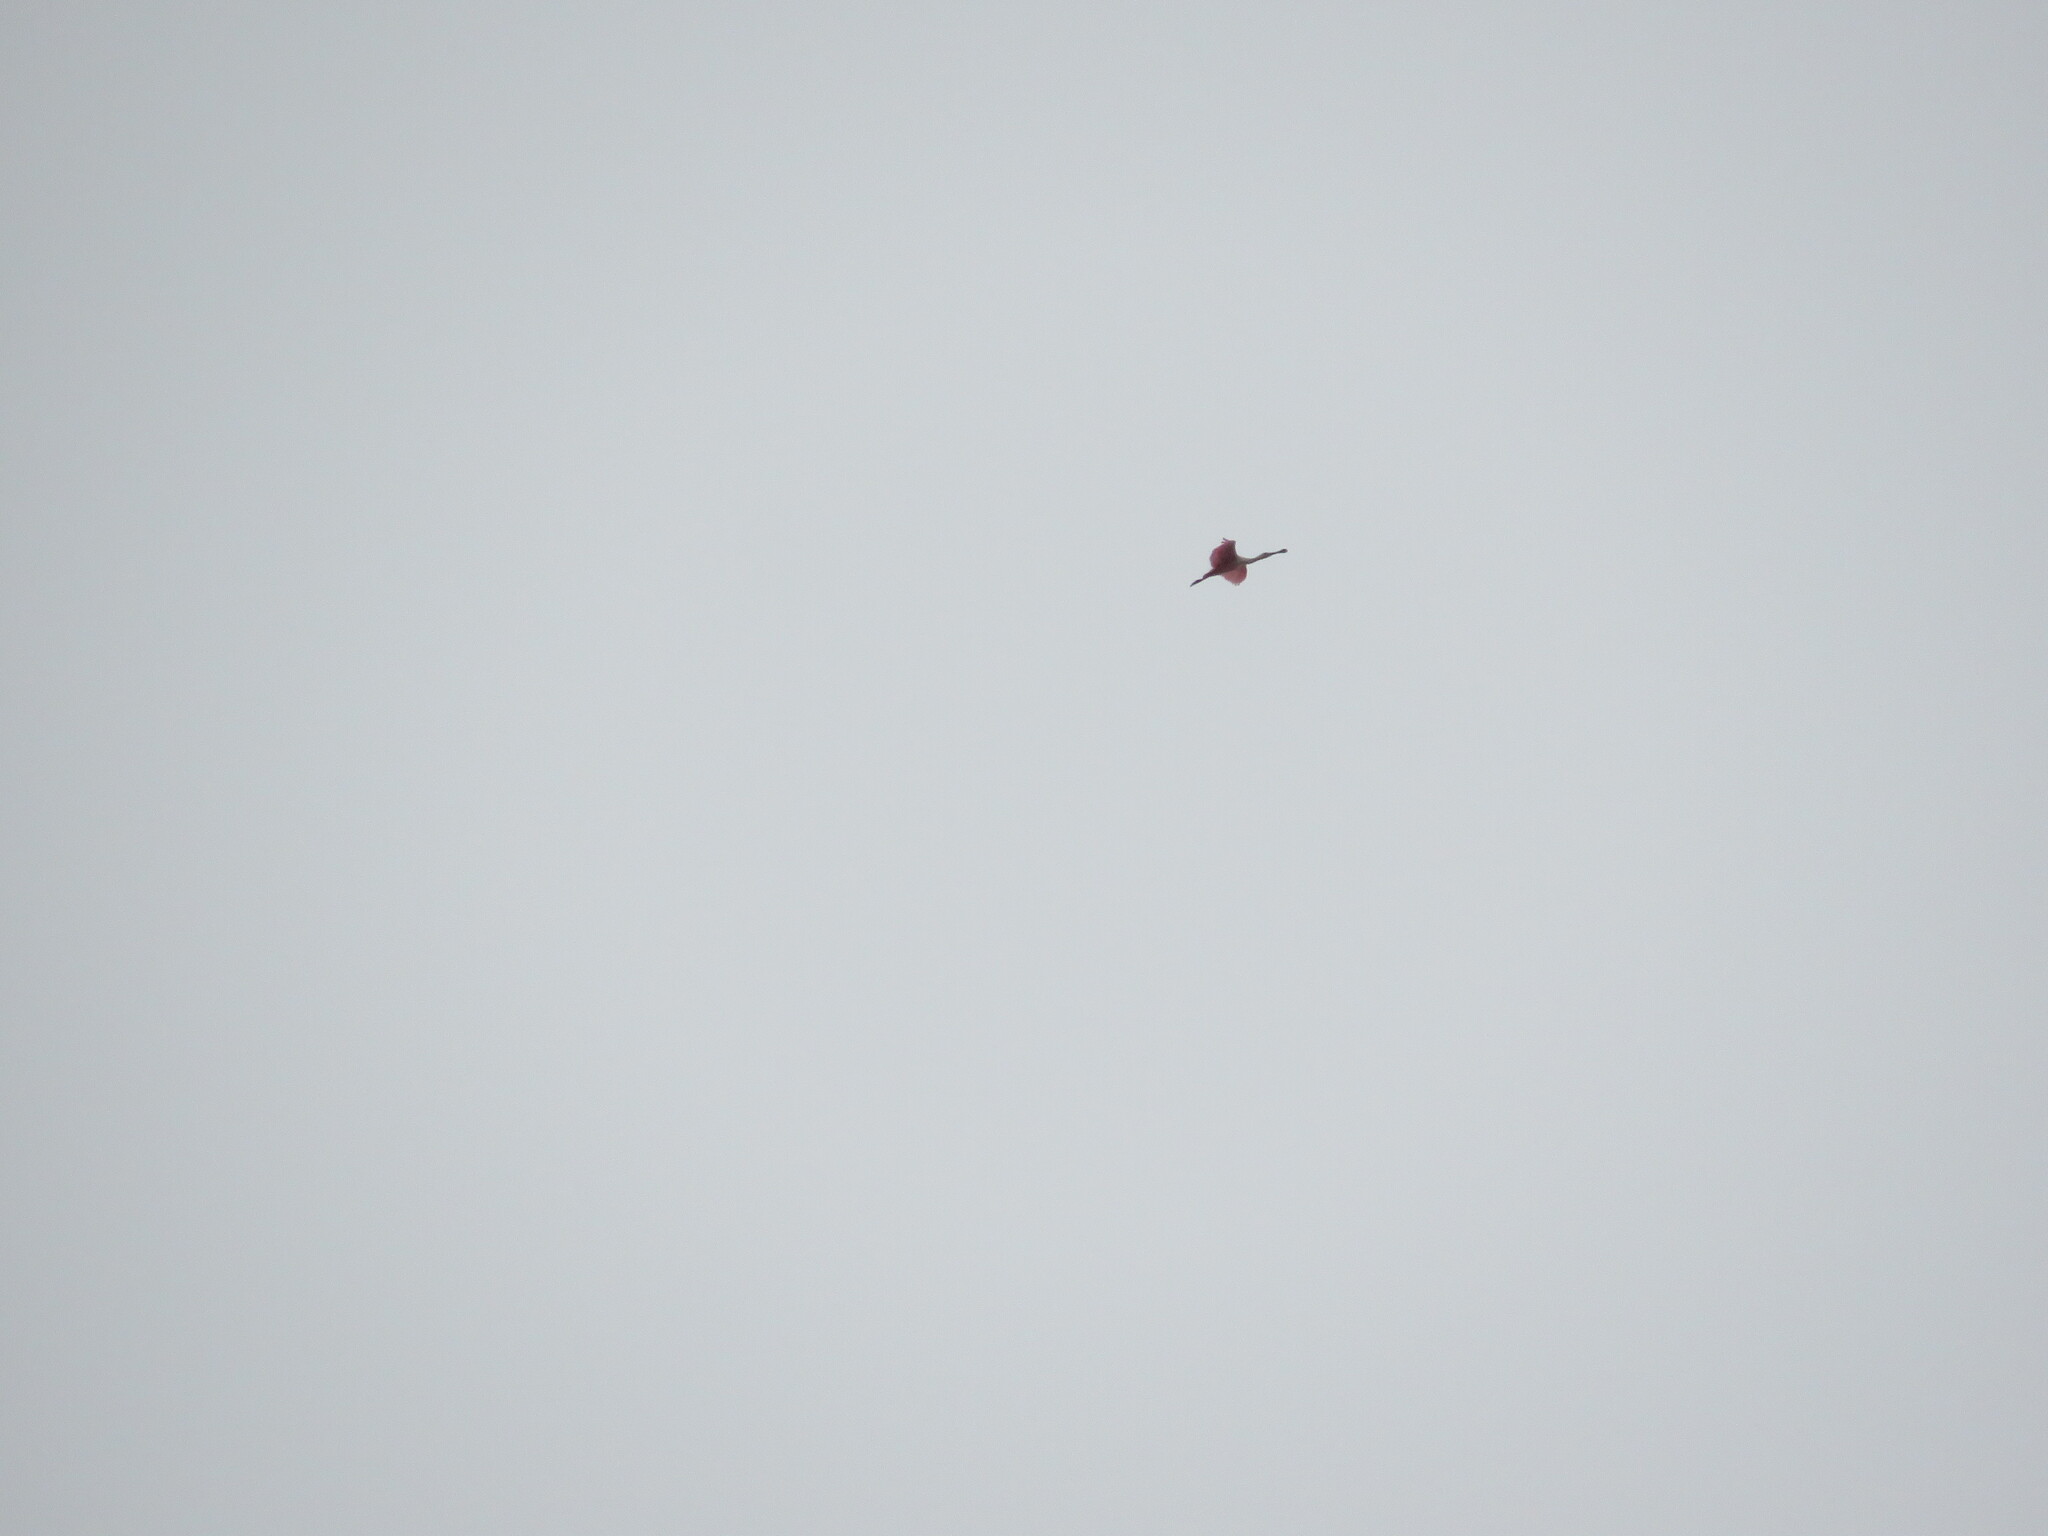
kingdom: Animalia
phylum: Chordata
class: Aves
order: Pelecaniformes
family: Threskiornithidae
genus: Platalea
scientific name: Platalea ajaja
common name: Roseate spoonbill
